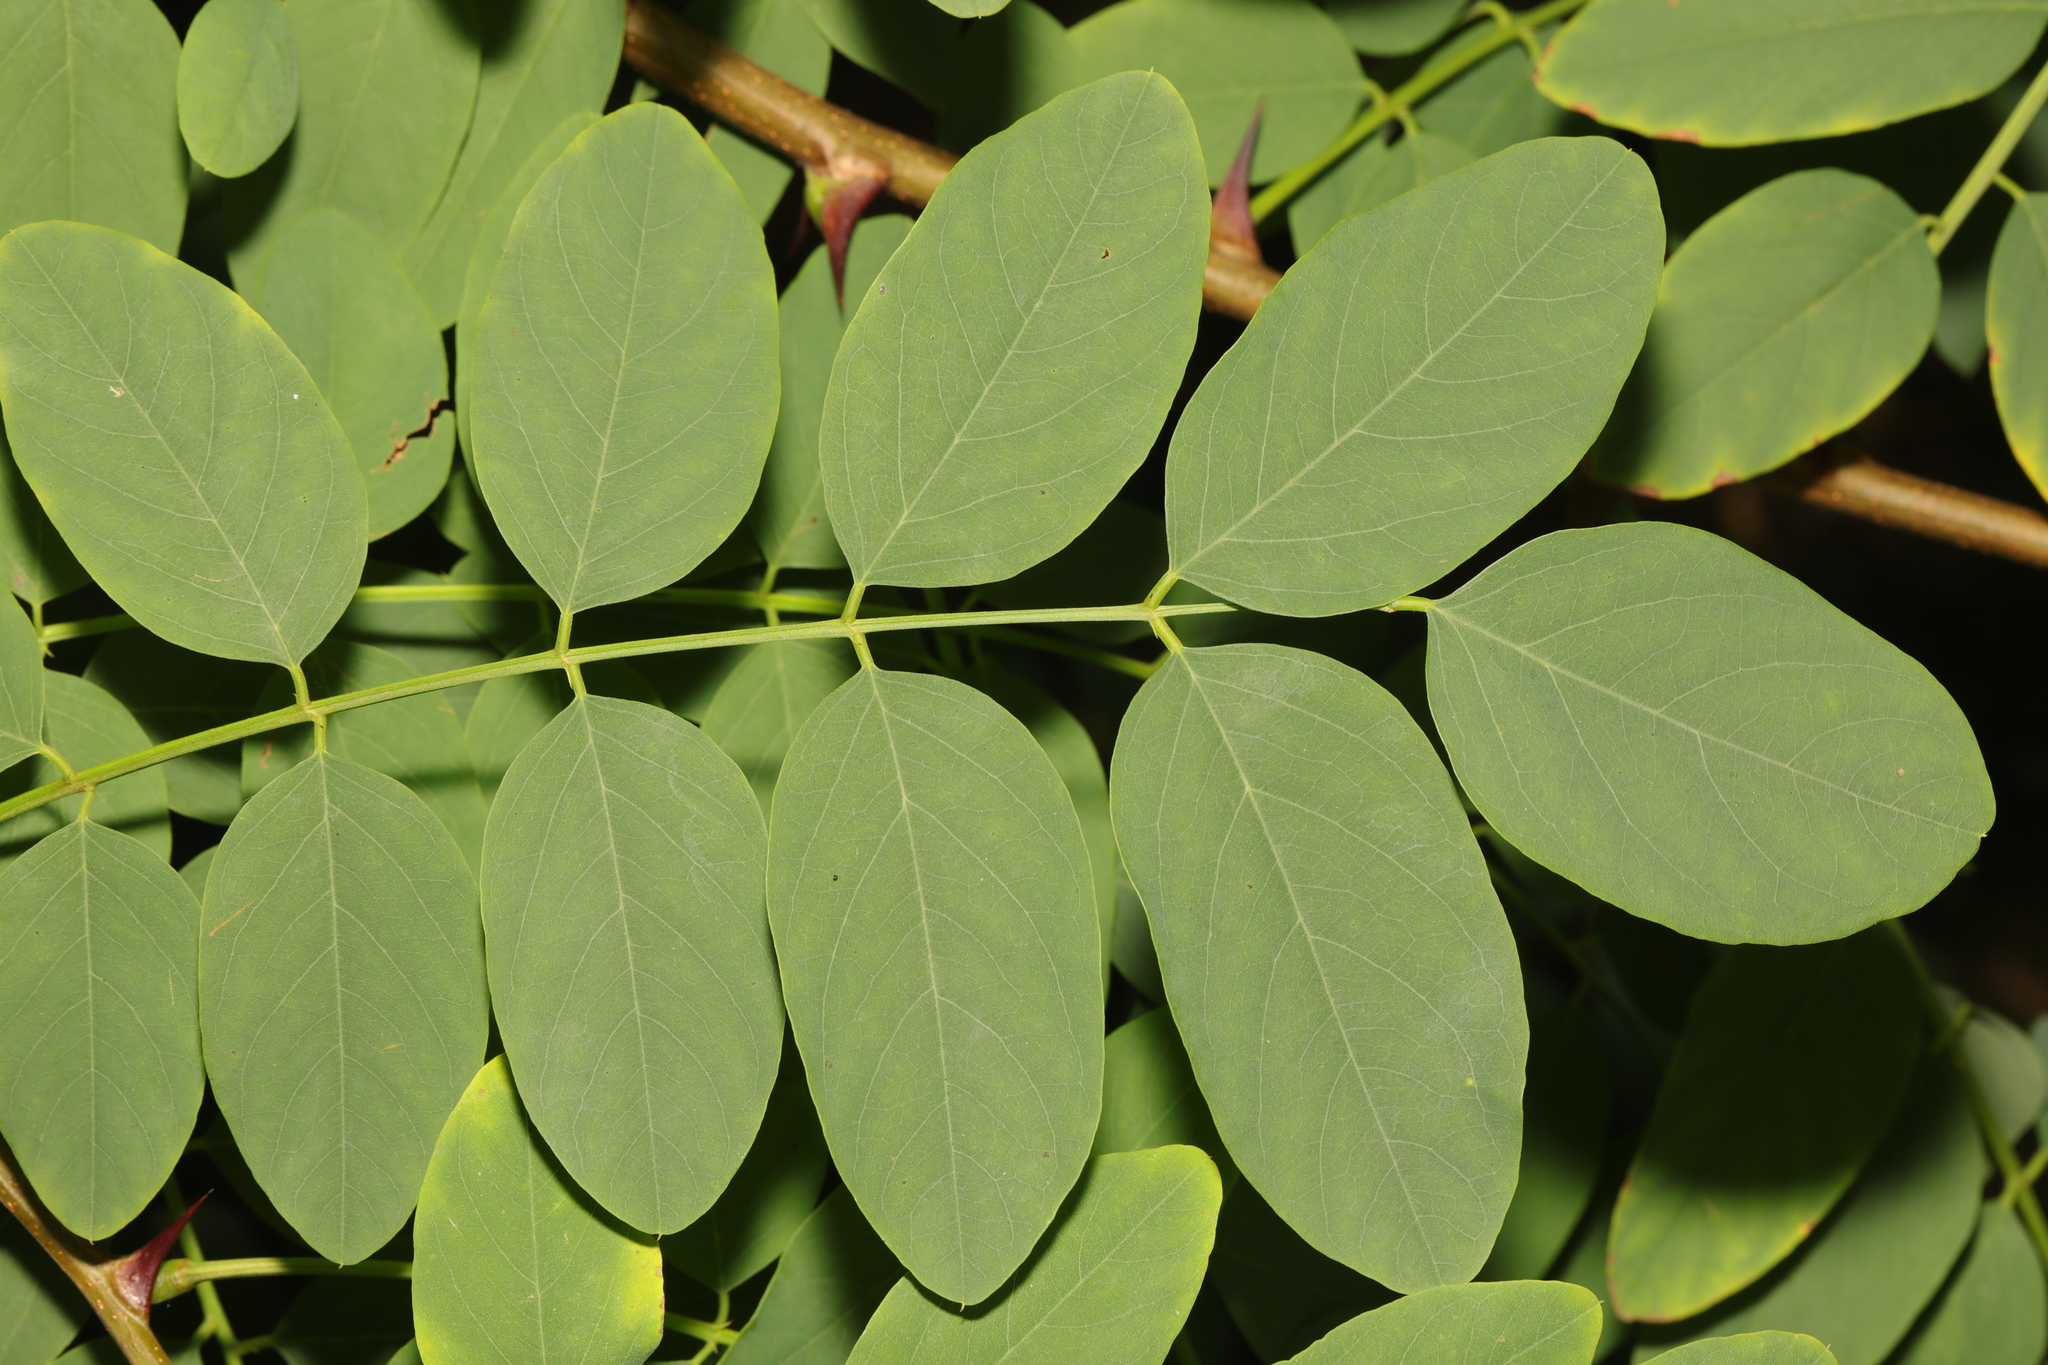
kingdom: Plantae
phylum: Tracheophyta
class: Magnoliopsida
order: Fabales
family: Fabaceae
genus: Robinia
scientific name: Robinia pseudoacacia
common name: Black locust
